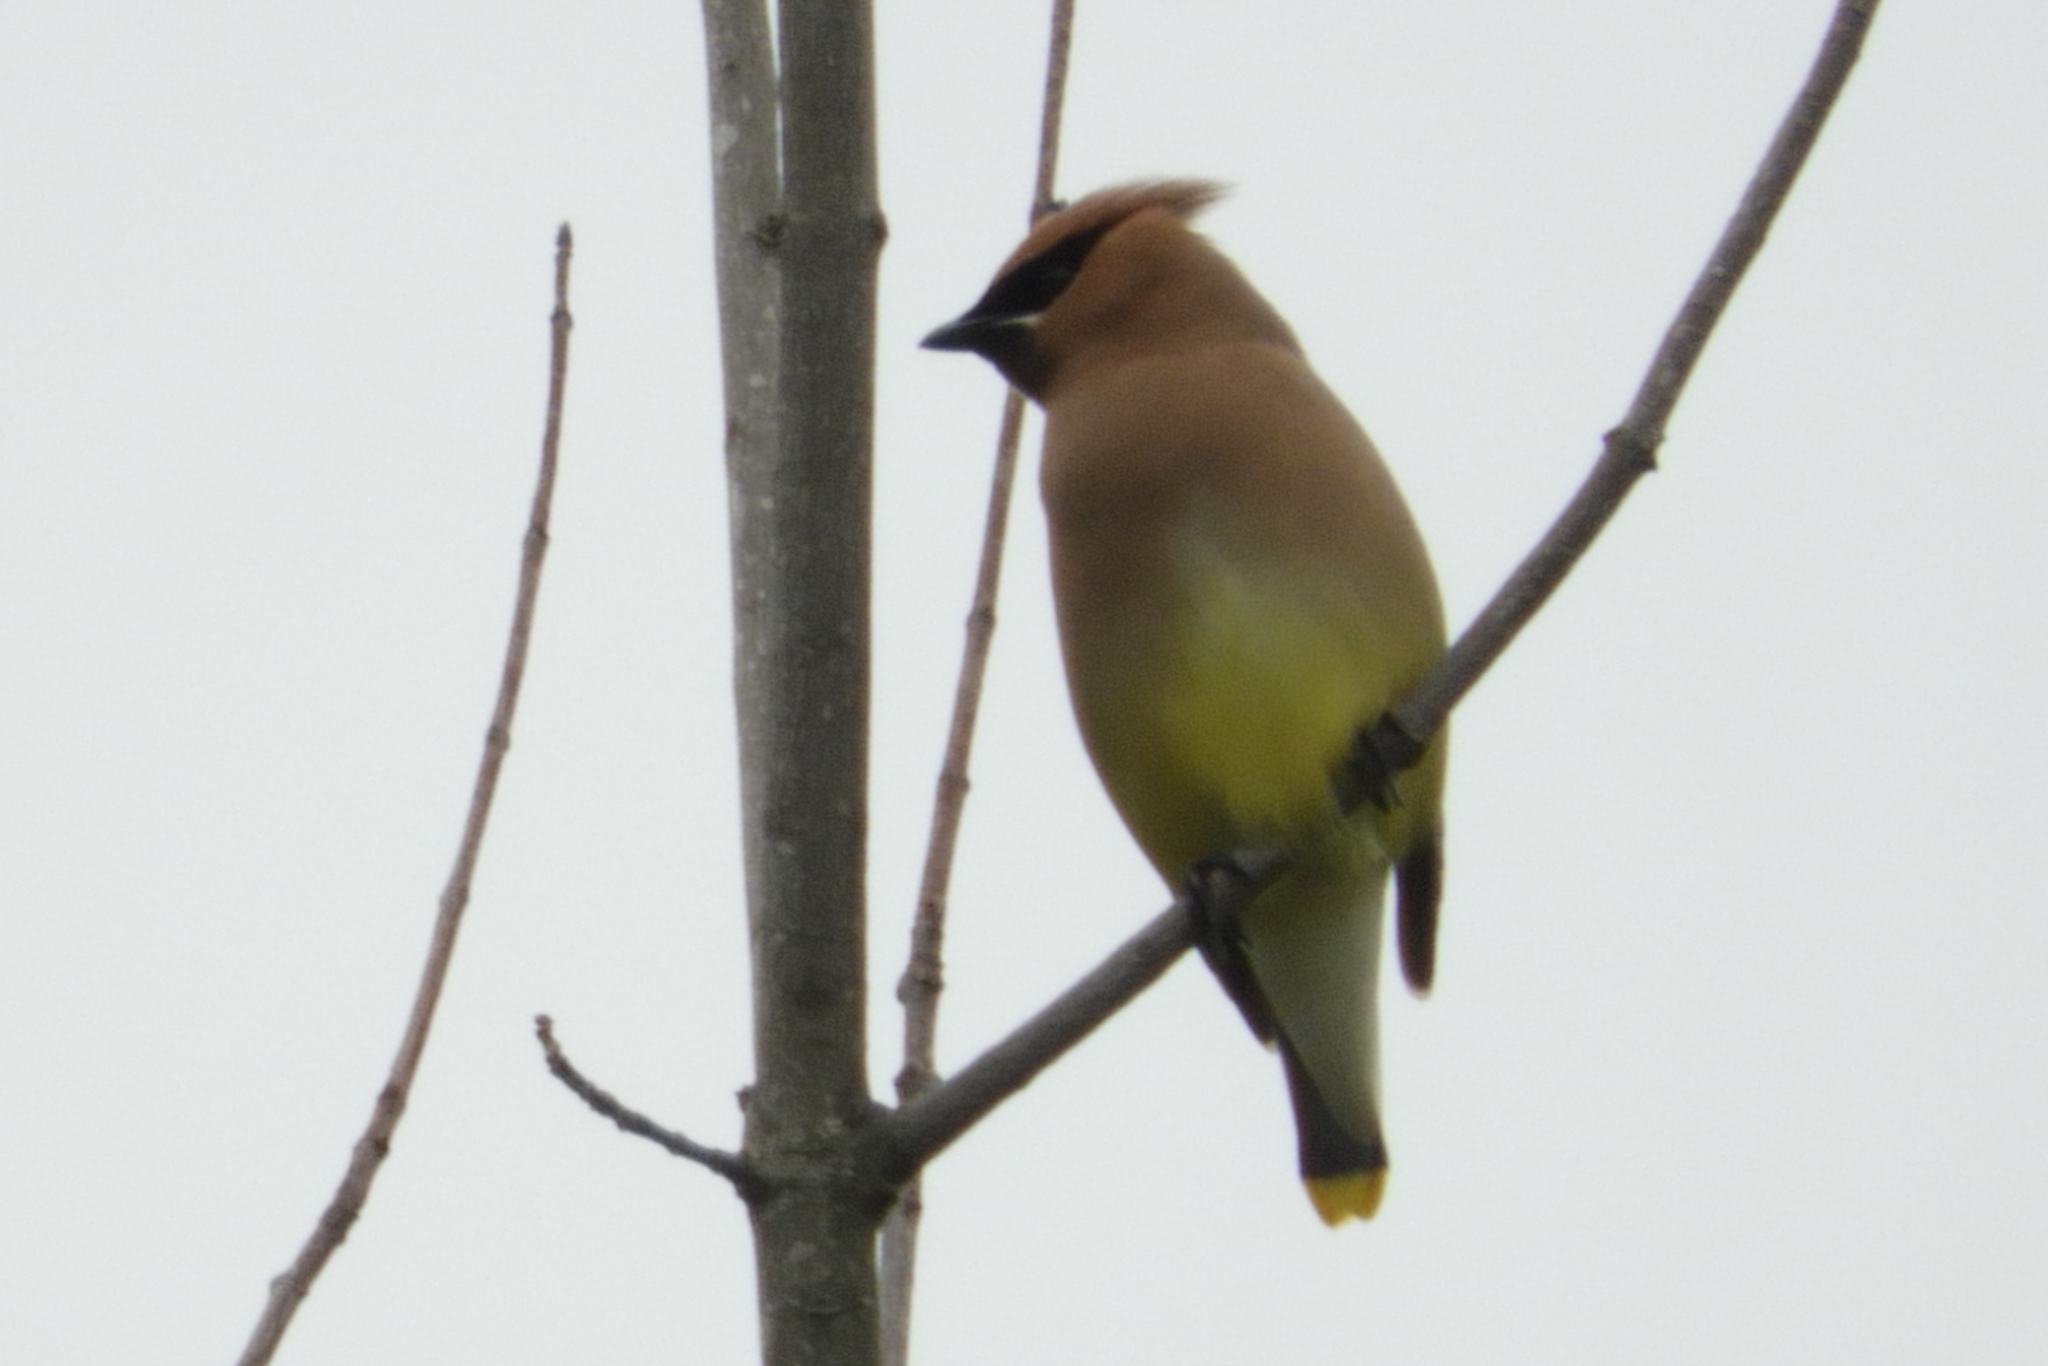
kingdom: Animalia
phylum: Chordata
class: Aves
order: Passeriformes
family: Bombycillidae
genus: Bombycilla
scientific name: Bombycilla cedrorum
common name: Cedar waxwing
